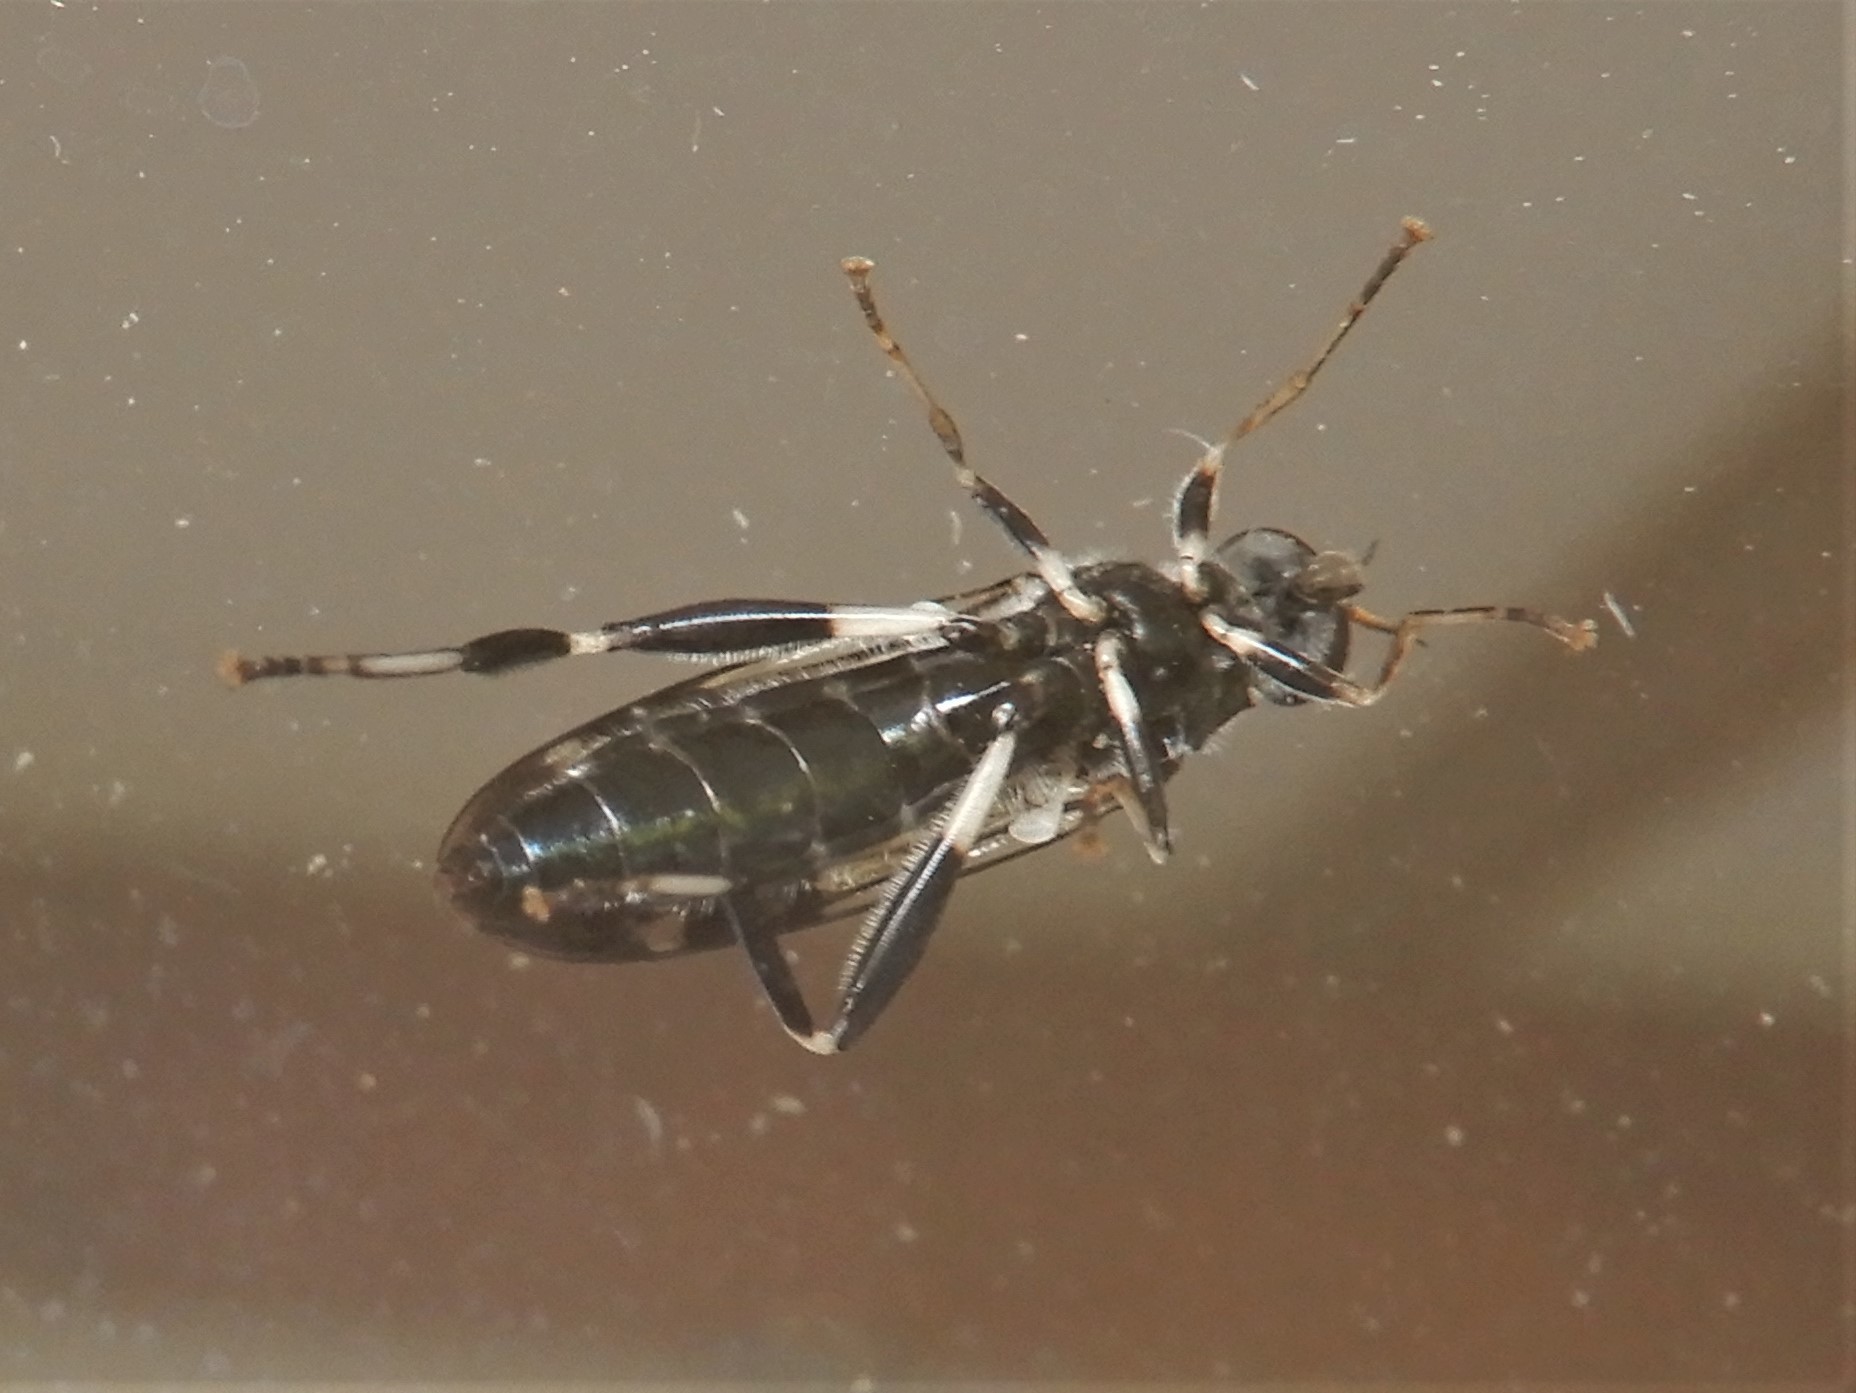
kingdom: Animalia
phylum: Arthropoda
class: Insecta
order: Diptera
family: Stratiomyidae
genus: Exaireta
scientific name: Exaireta spinigera
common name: Blue soldier fly
